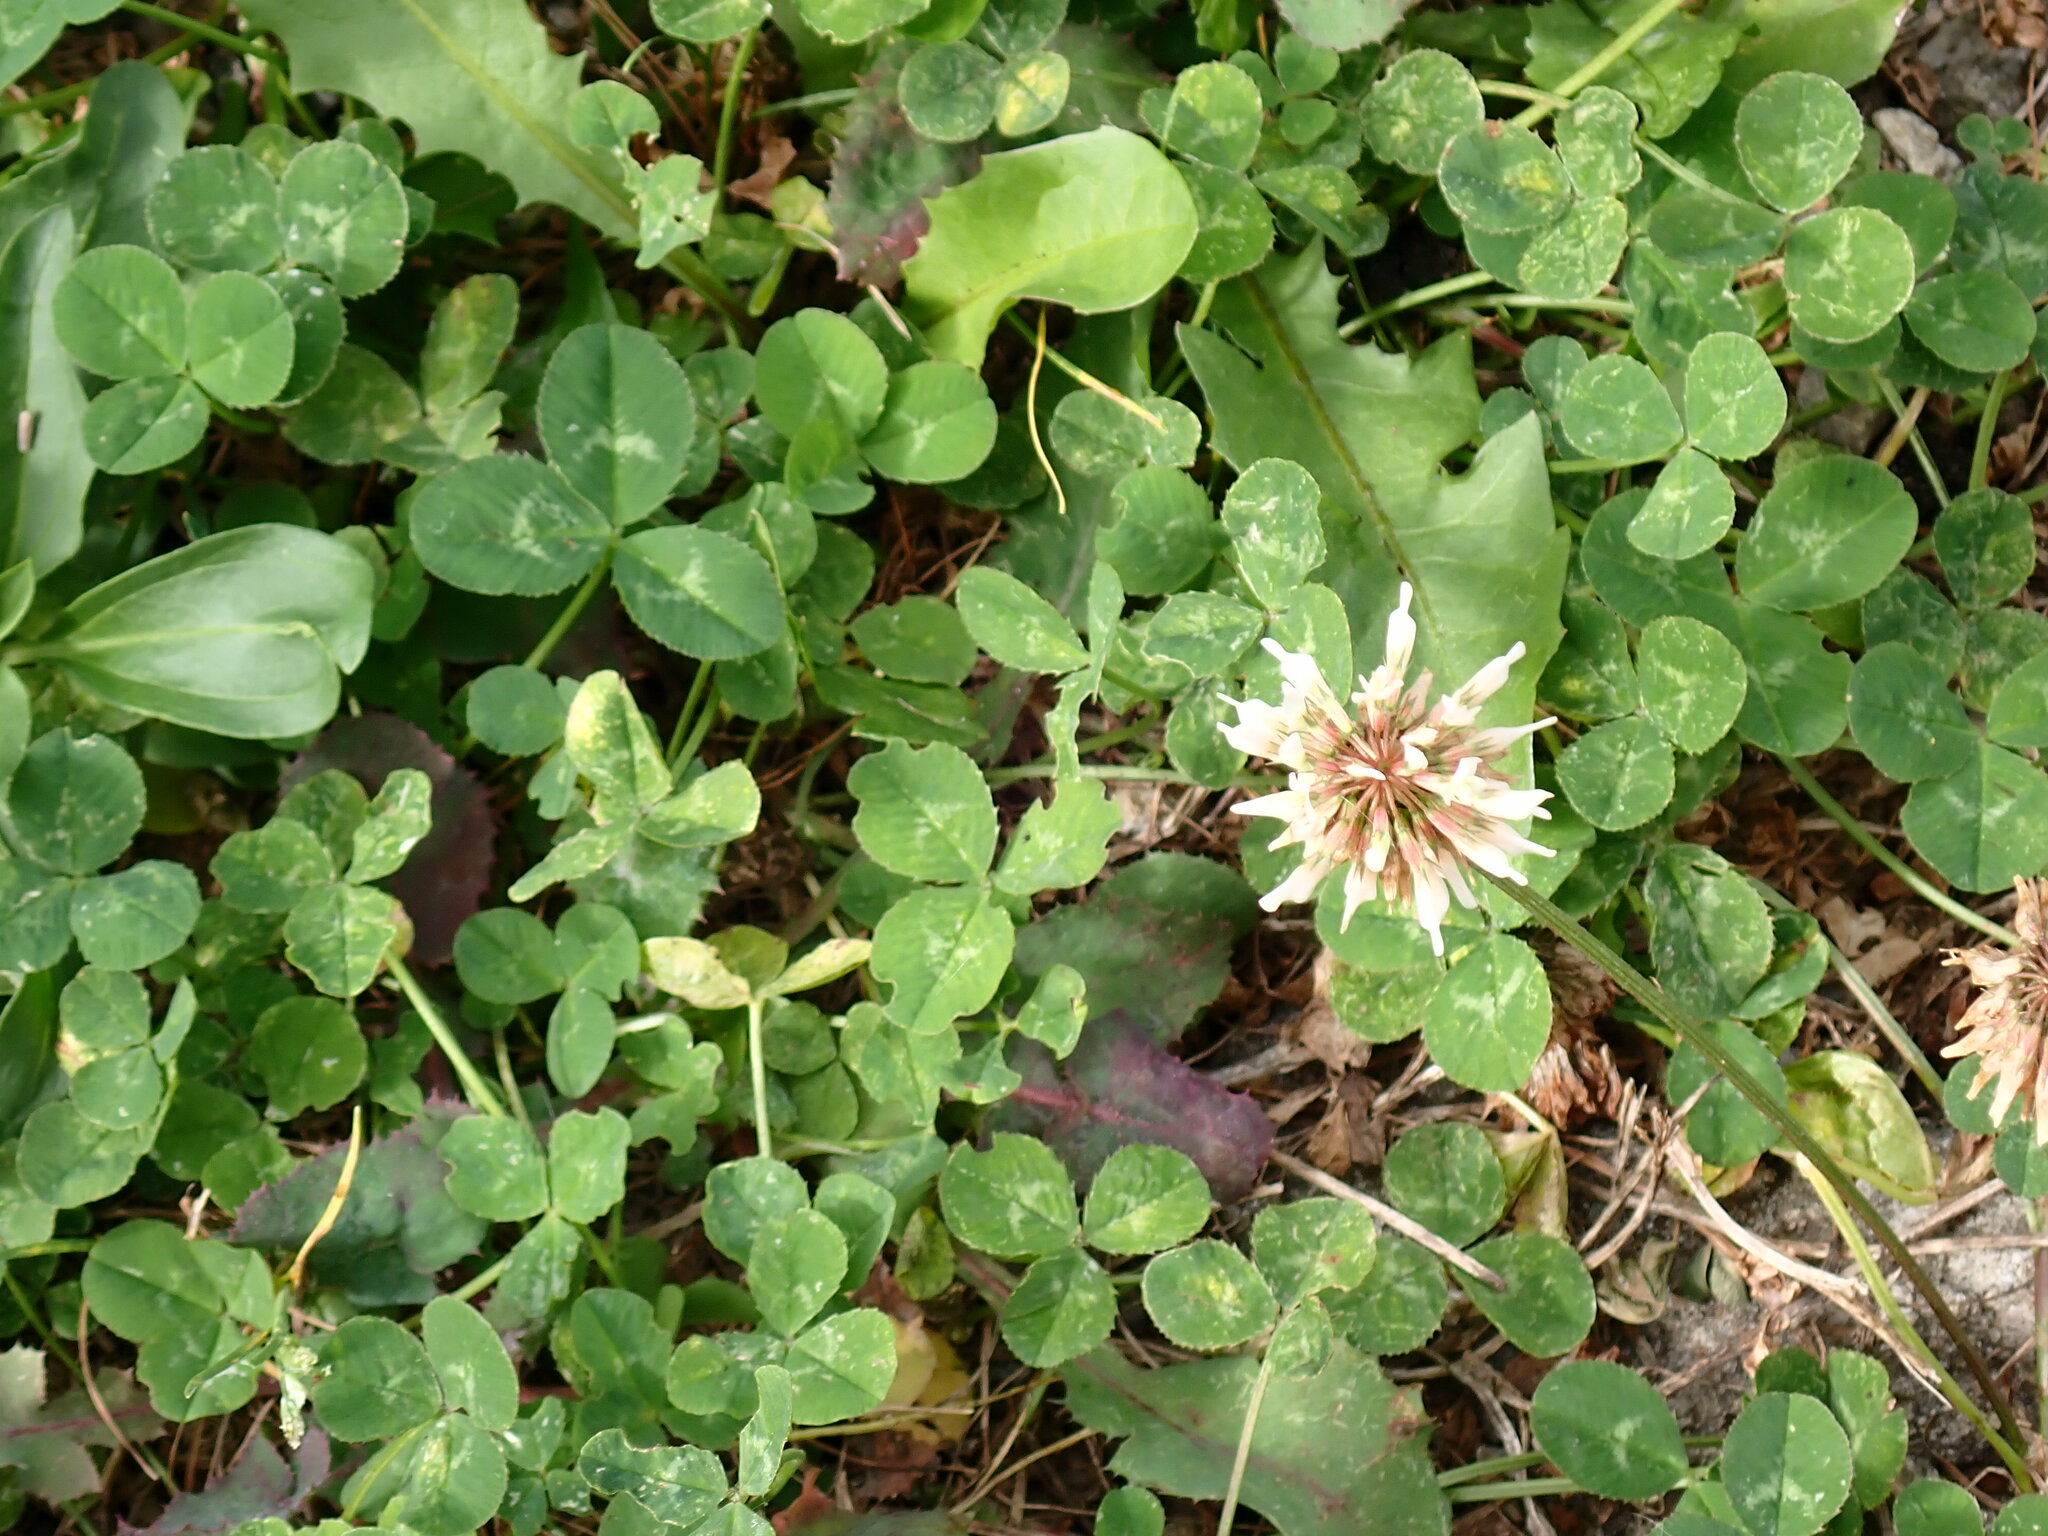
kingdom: Plantae
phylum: Tracheophyta
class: Magnoliopsida
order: Fabales
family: Fabaceae
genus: Trifolium
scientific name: Trifolium repens
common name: White clover
